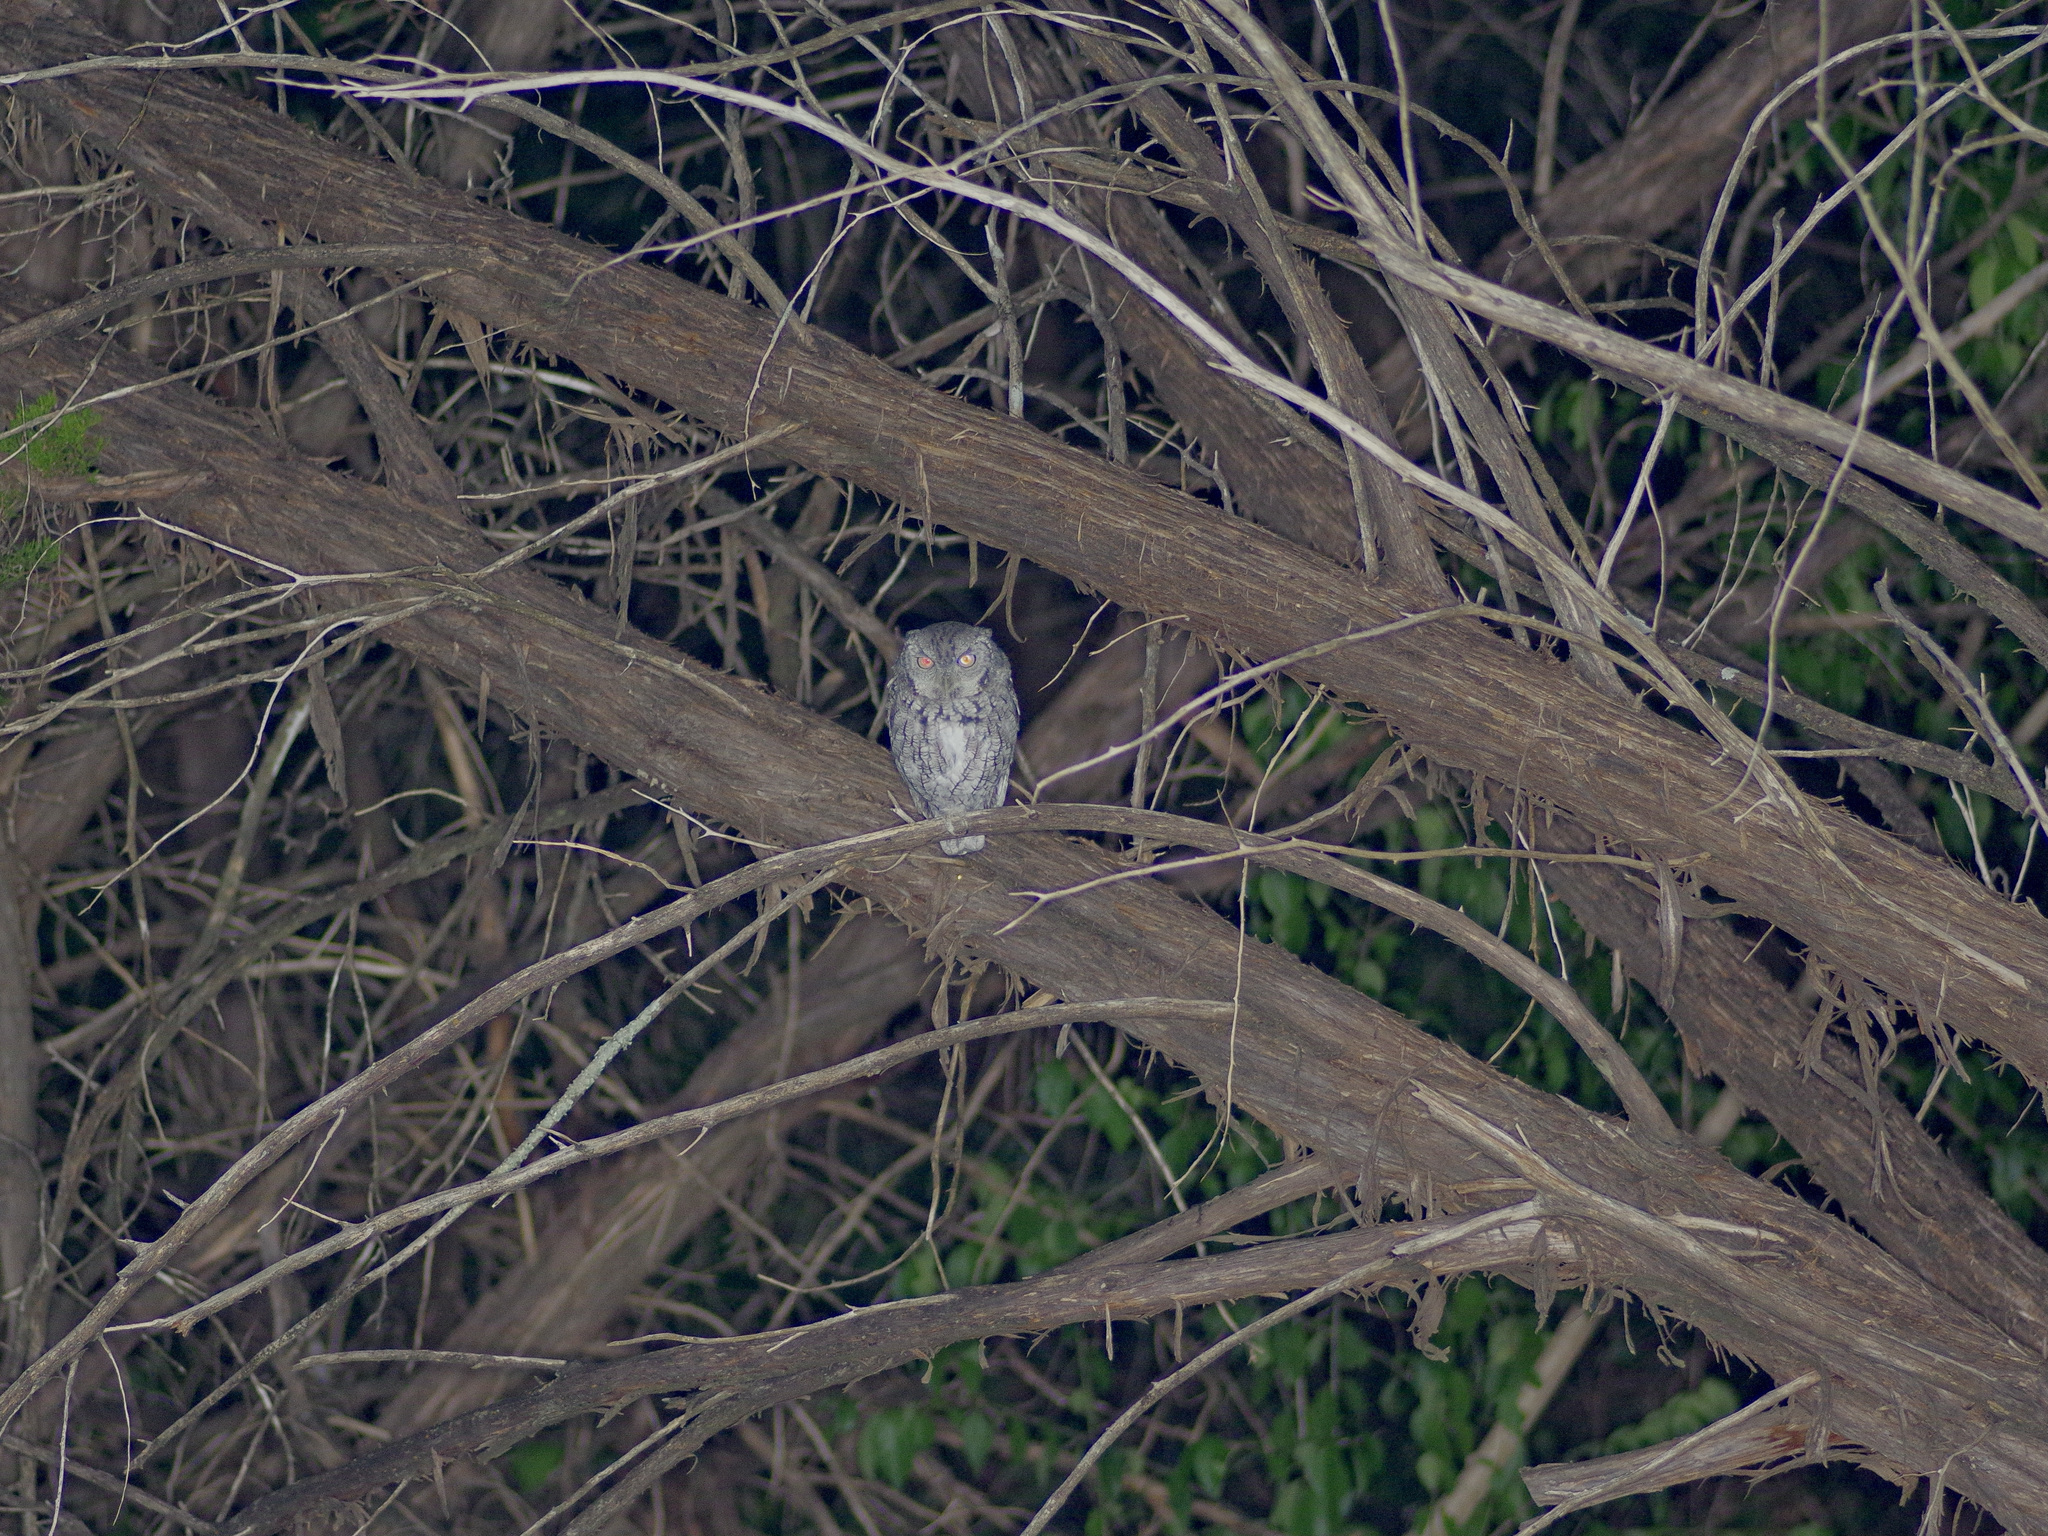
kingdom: Animalia
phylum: Chordata
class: Aves
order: Strigiformes
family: Strigidae
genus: Megascops
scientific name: Megascops asio
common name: Eastern screech-owl
